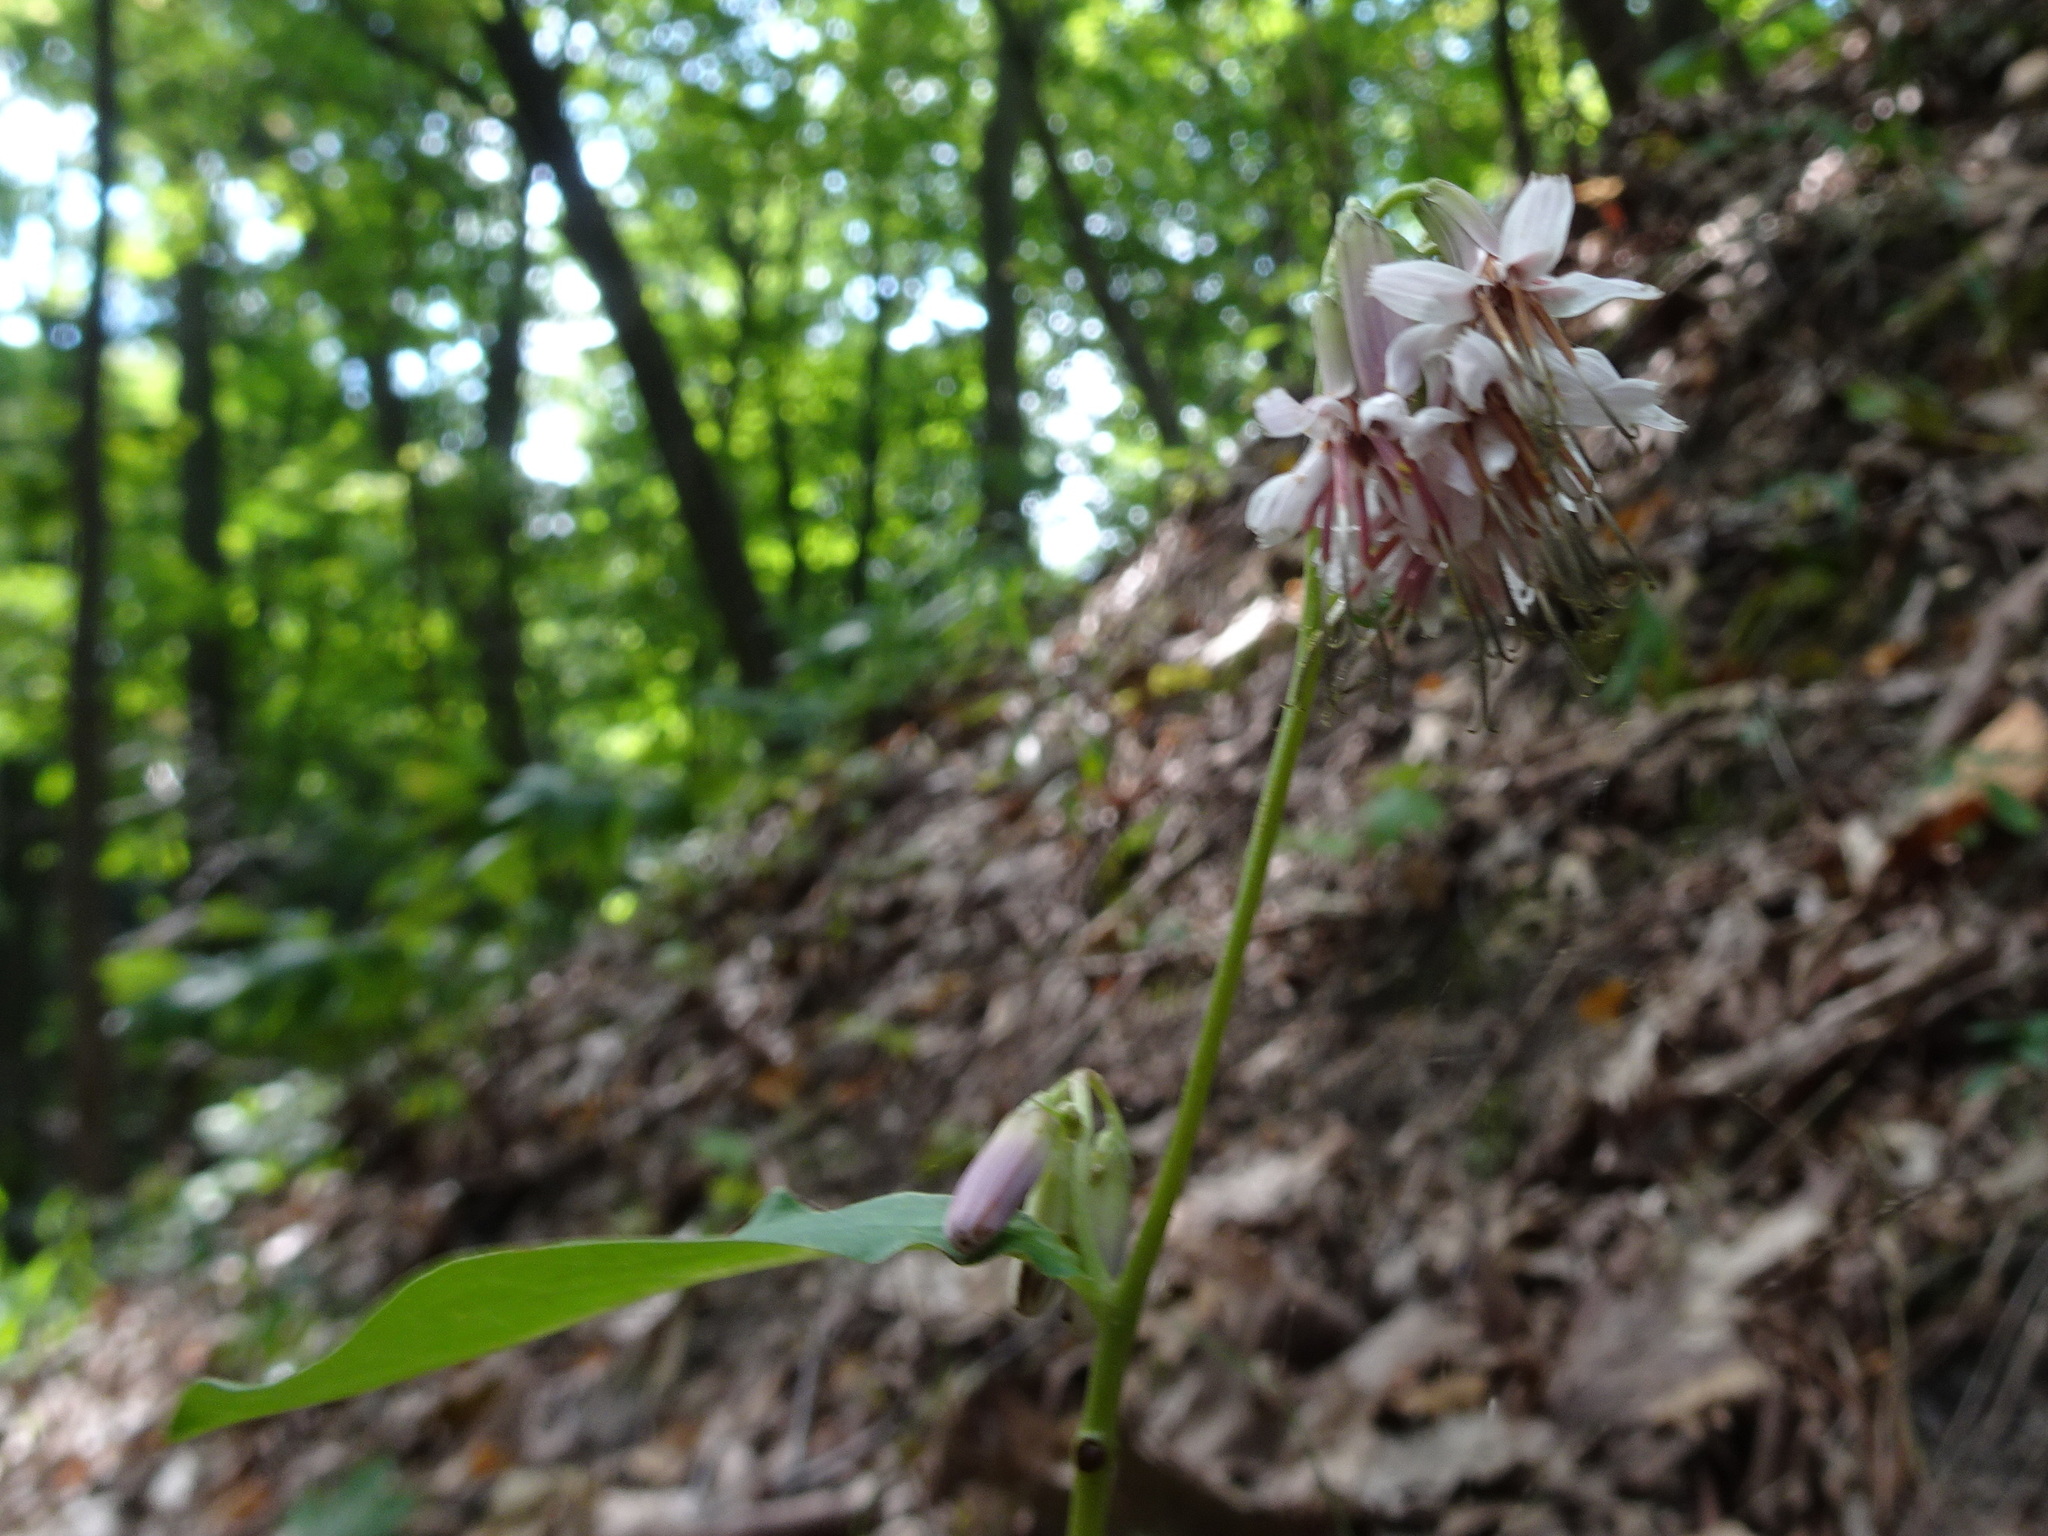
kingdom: Plantae
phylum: Tracheophyta
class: Magnoliopsida
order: Asterales
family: Asteraceae
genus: Nabalus
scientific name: Nabalus albus
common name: White rattlesnakeroot
